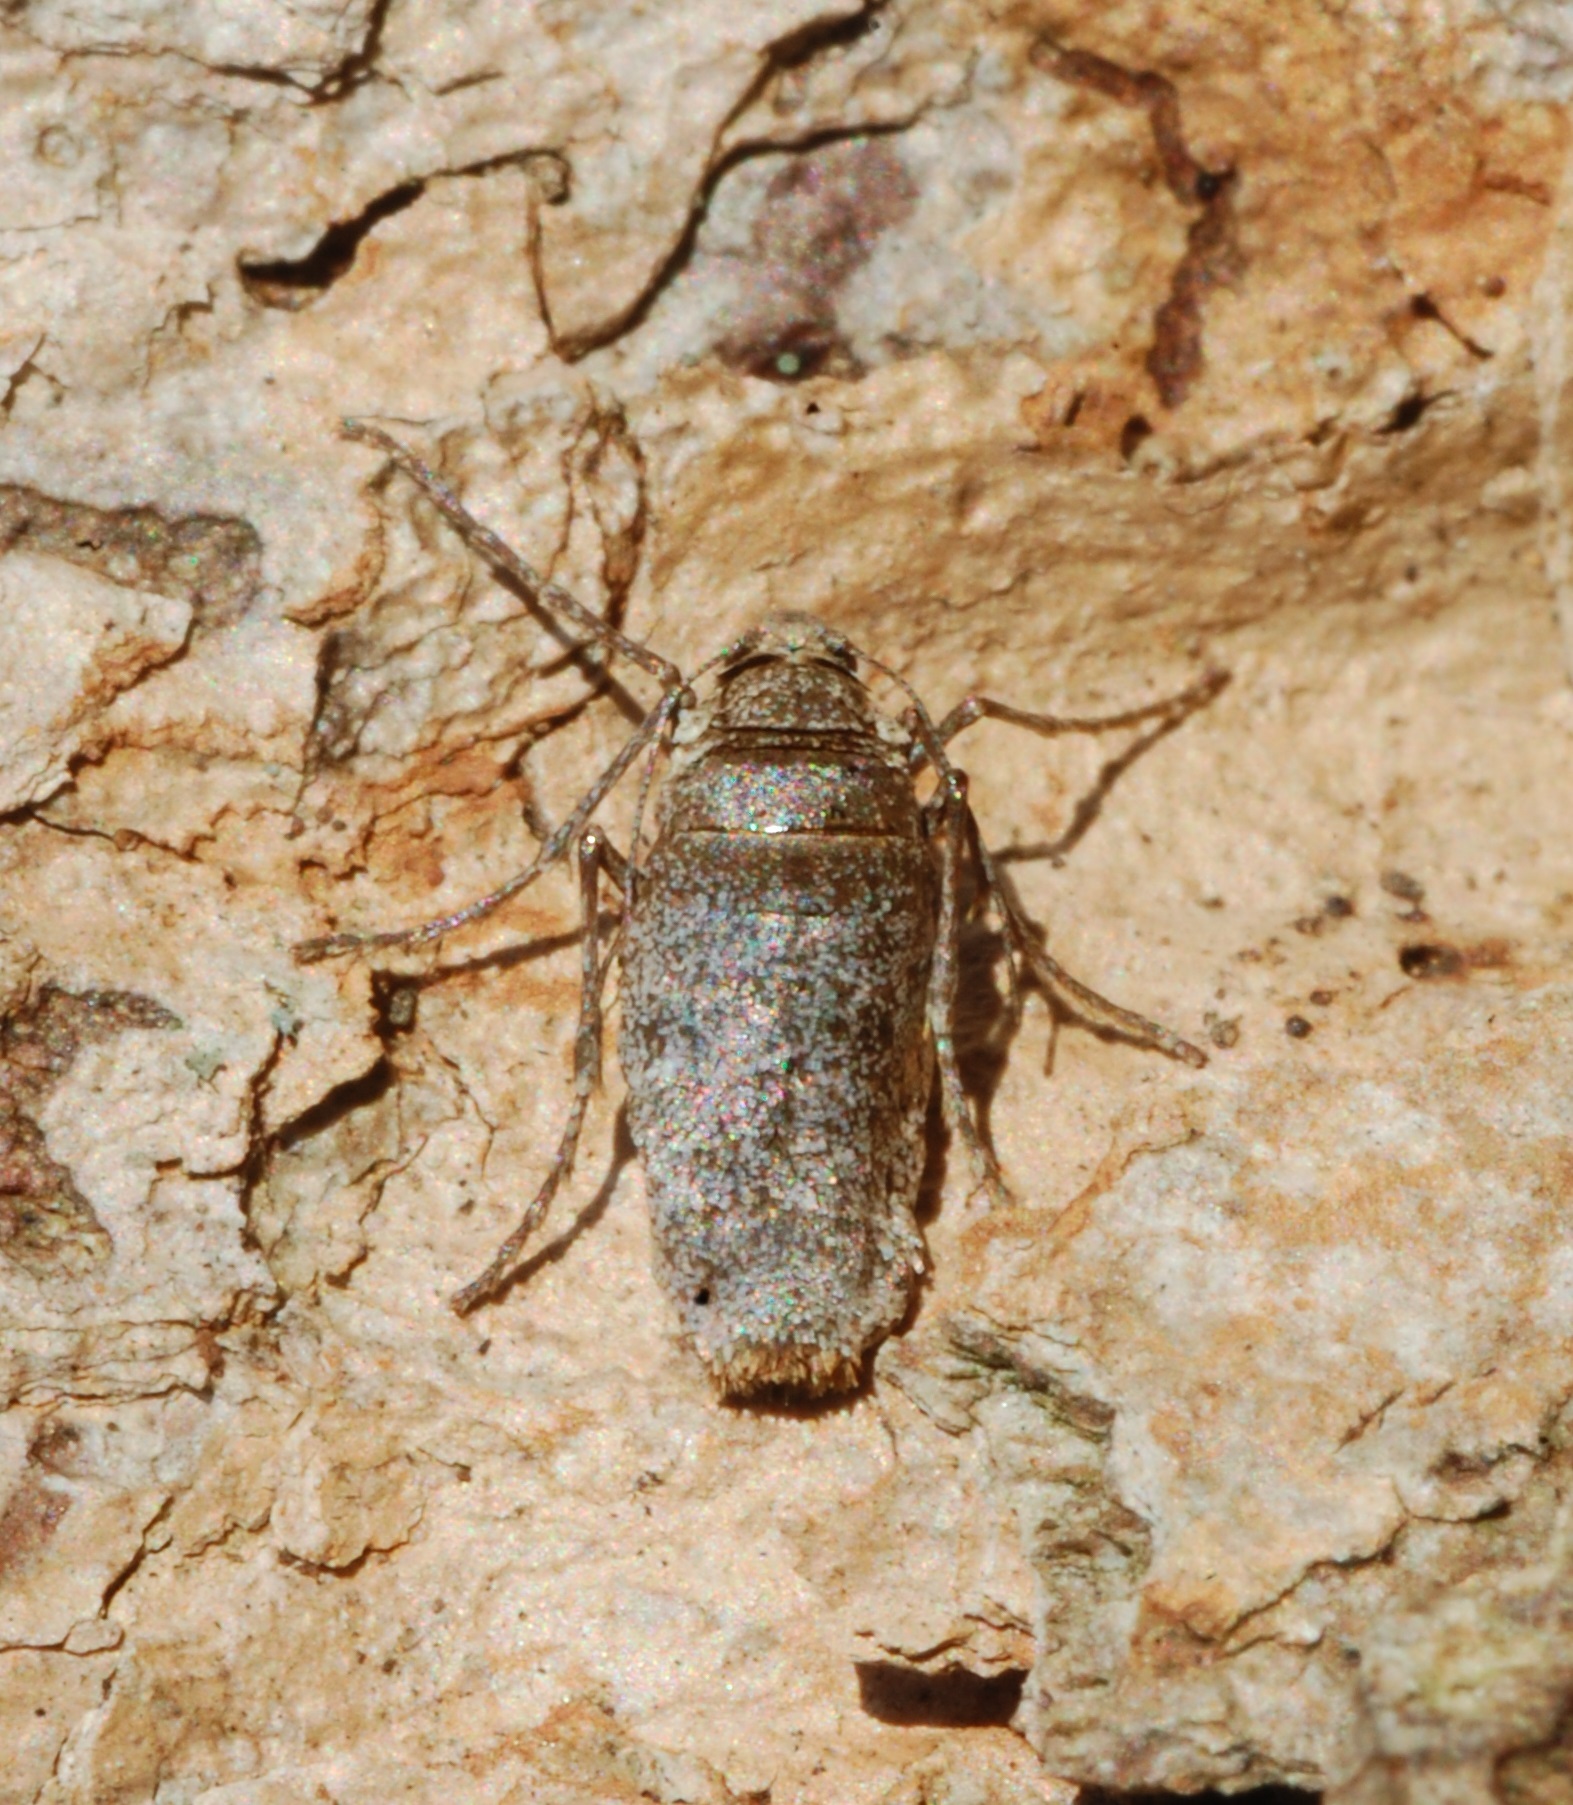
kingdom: Animalia
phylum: Arthropoda
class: Insecta
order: Lepidoptera
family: Geometridae
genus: Alsophila
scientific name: Alsophila pometaria
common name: Fall cankerworm
